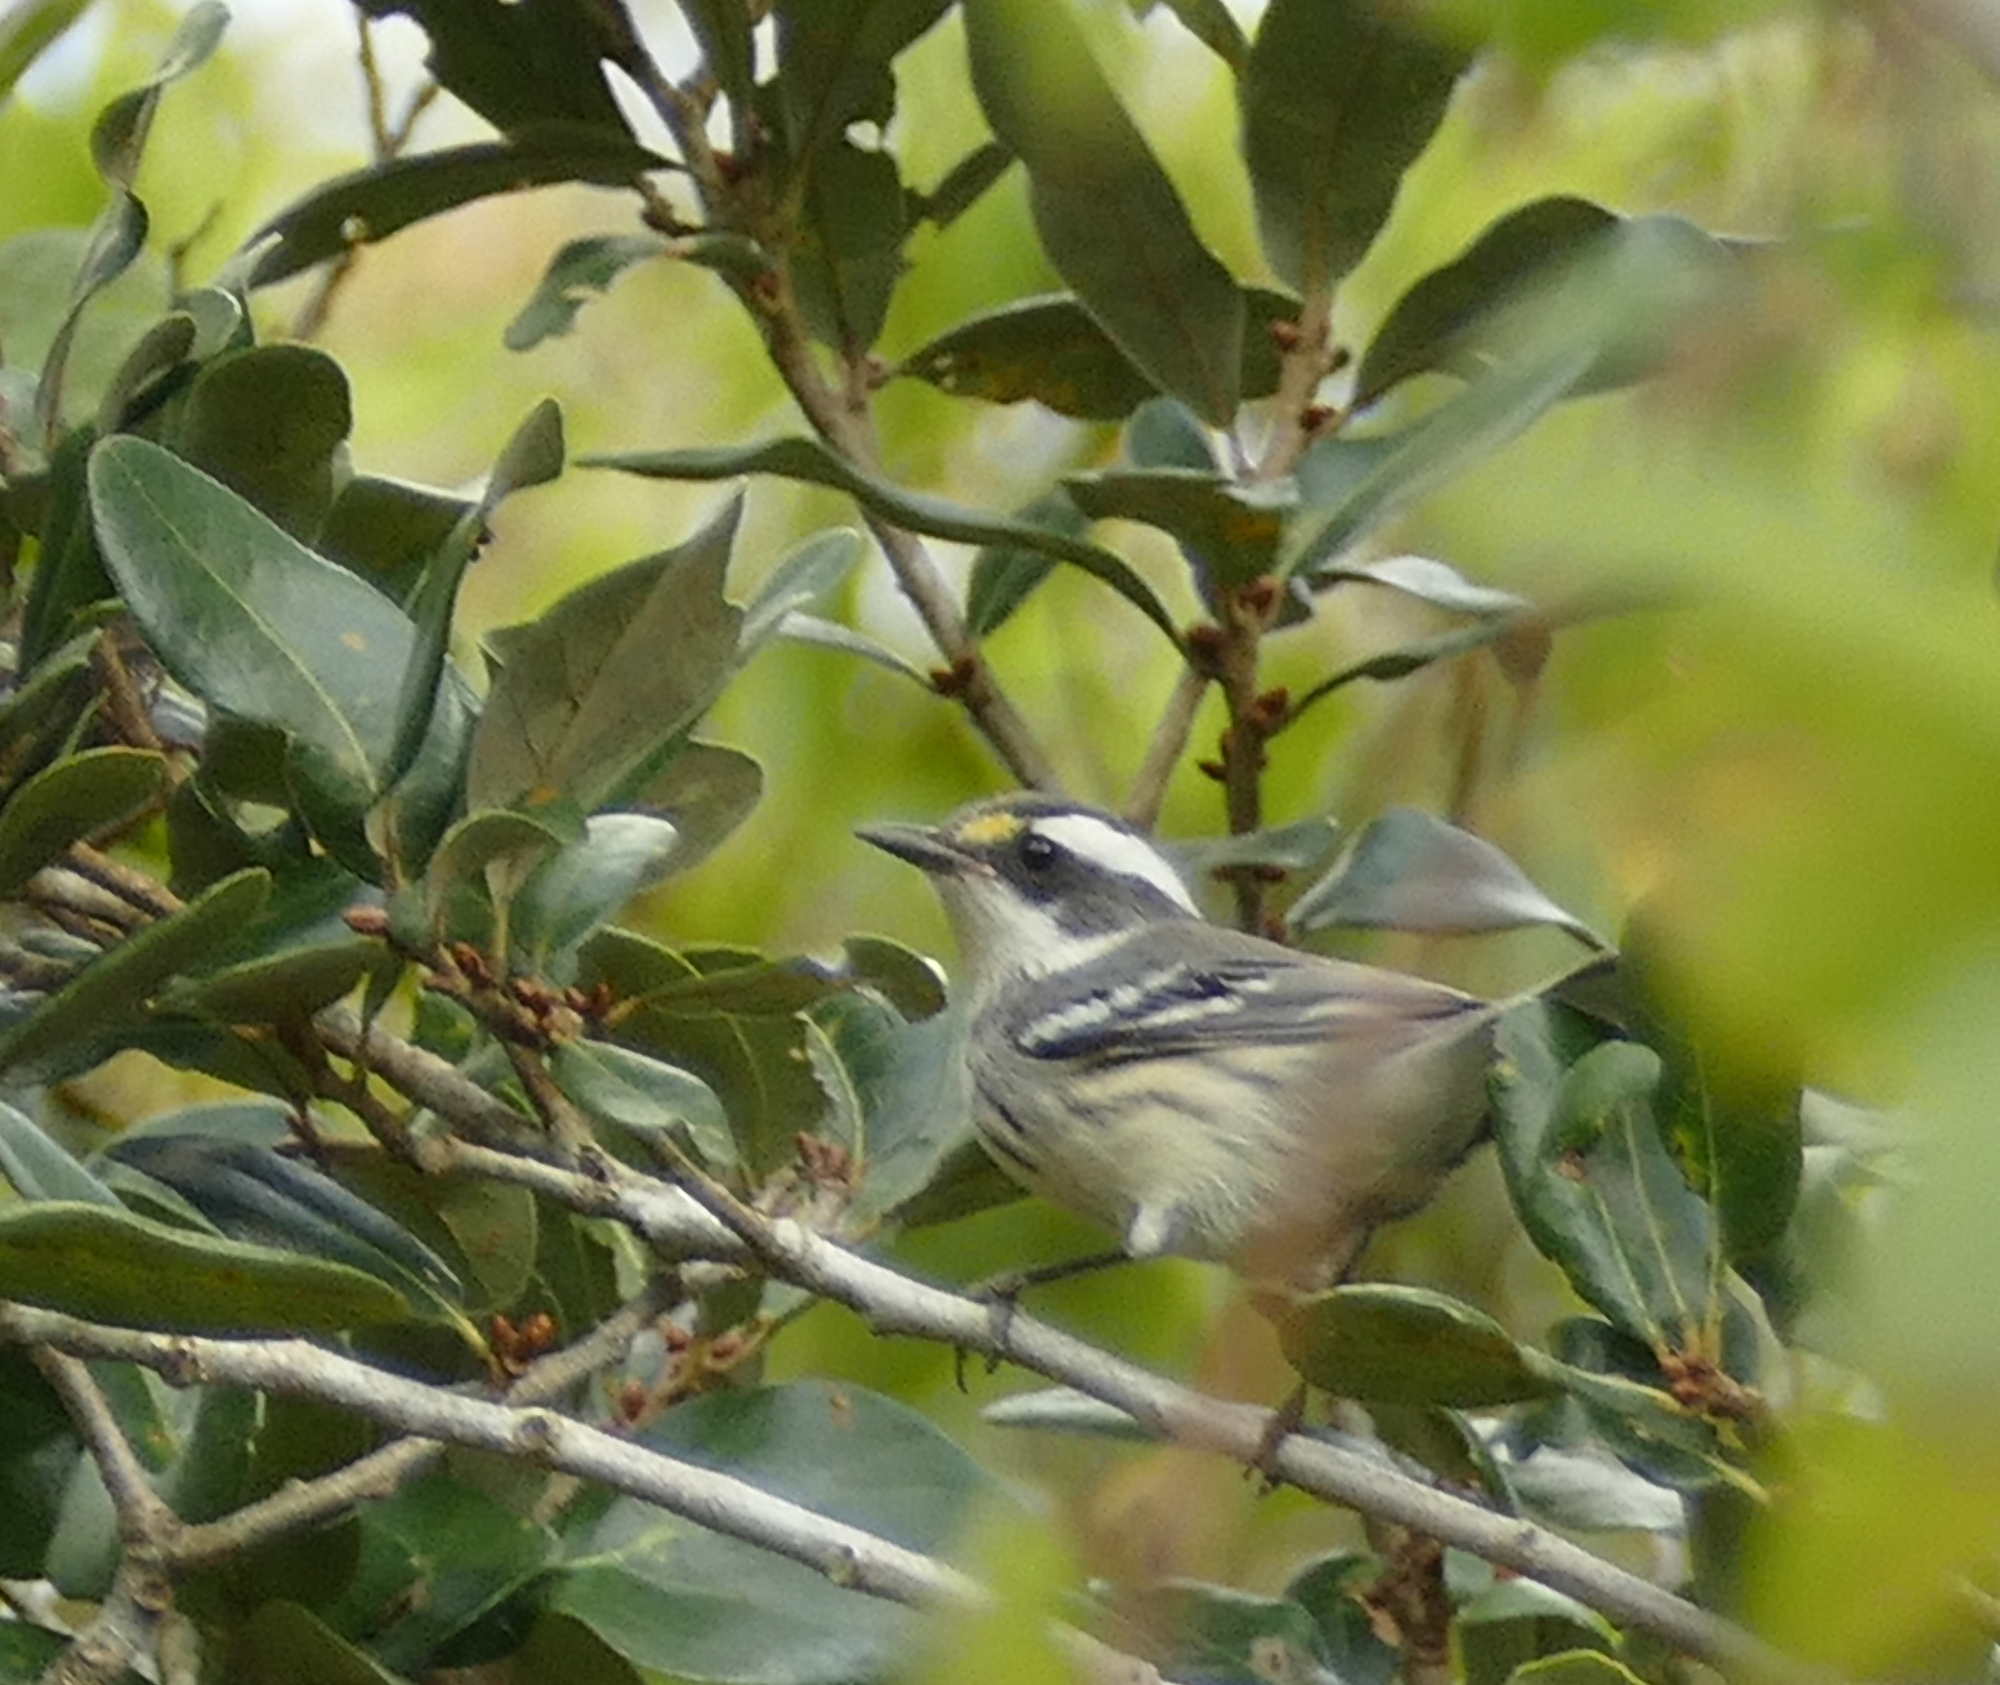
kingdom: Animalia
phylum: Chordata
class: Aves
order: Passeriformes
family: Parulidae
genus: Setophaga
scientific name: Setophaga nigrescens
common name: Black-throated gray warbler
